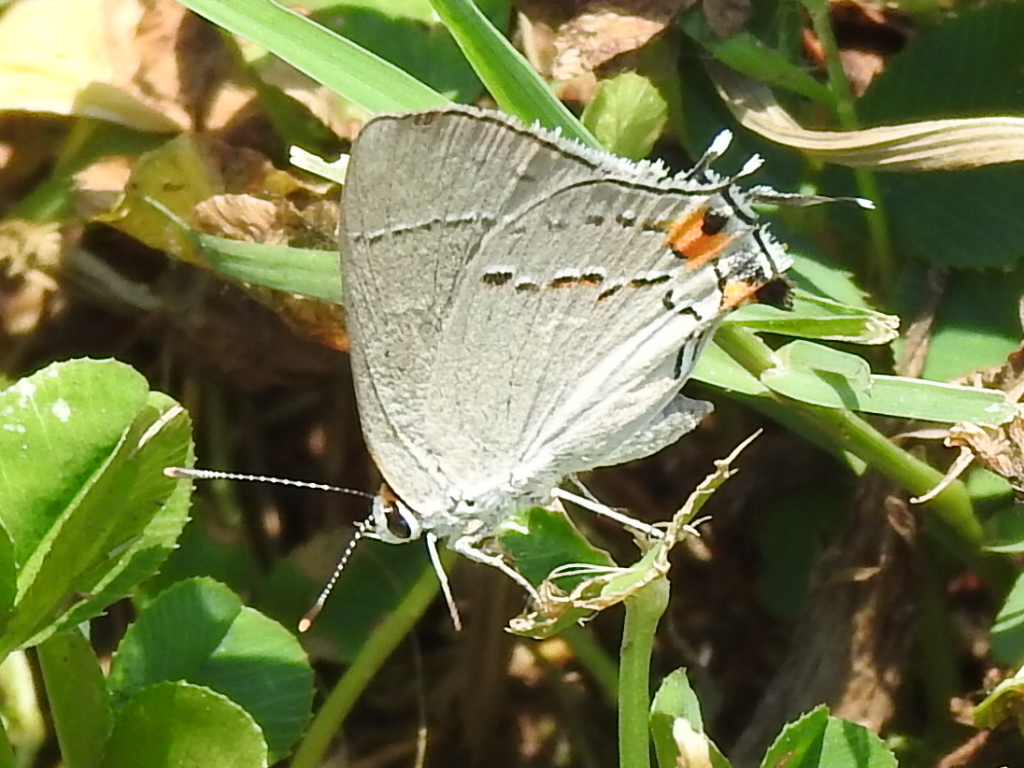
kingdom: Animalia
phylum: Arthropoda
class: Insecta
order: Lepidoptera
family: Lycaenidae
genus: Strymon
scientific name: Strymon melinus
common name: Gray hairstreak
